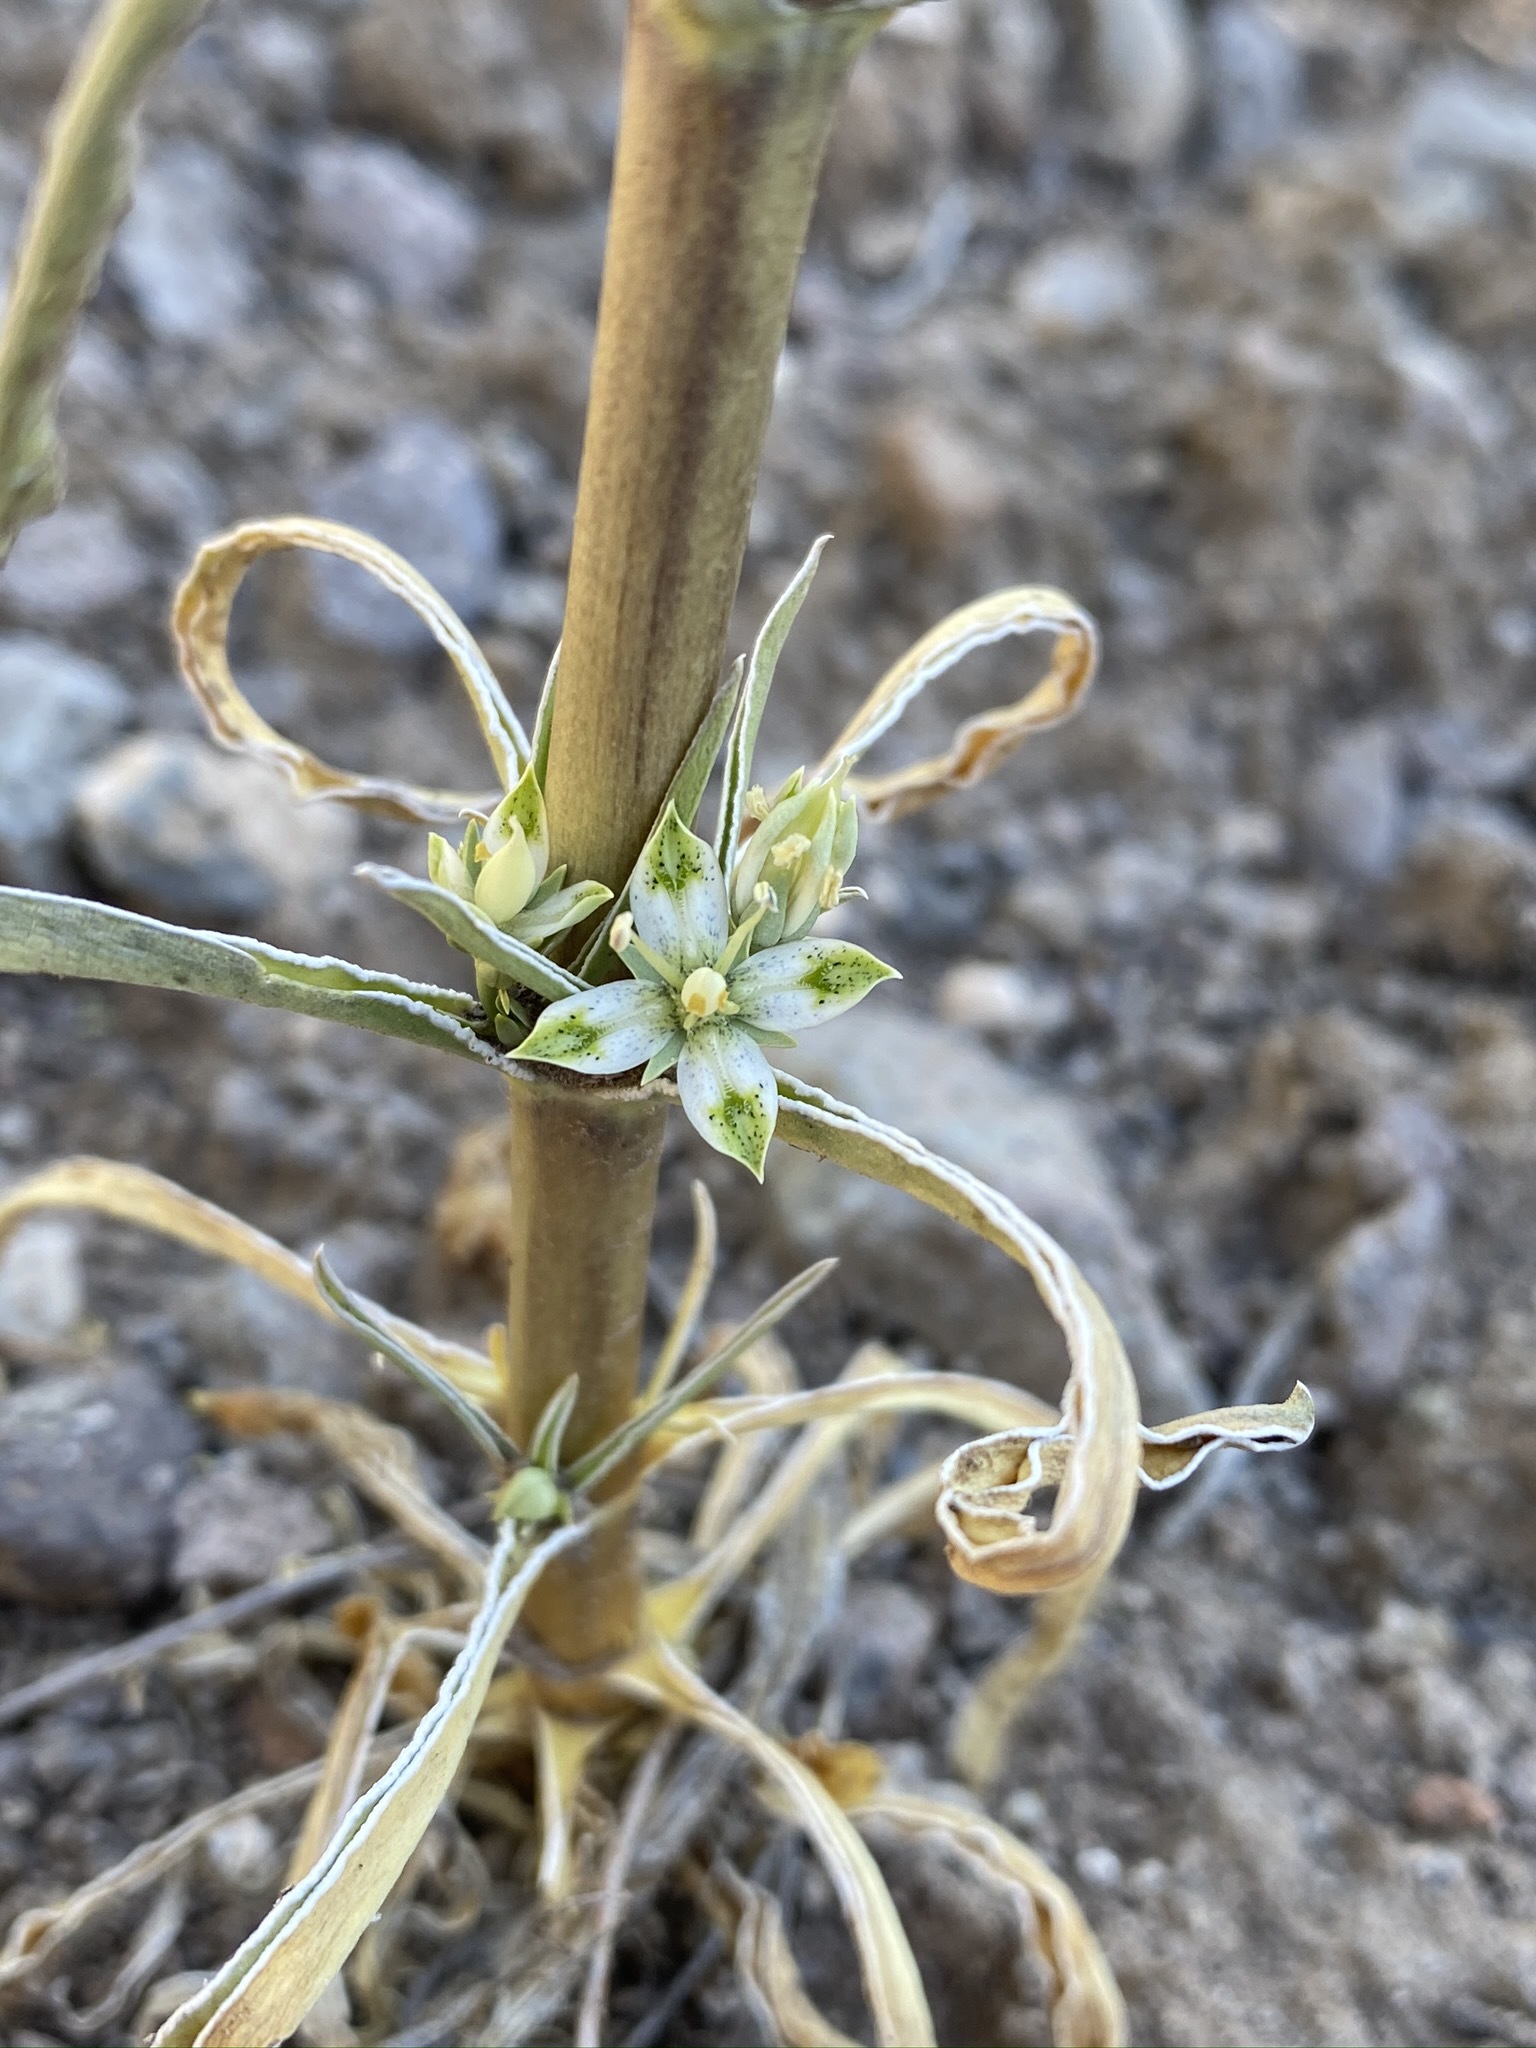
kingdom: Plantae
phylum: Tracheophyta
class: Magnoliopsida
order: Gentianales
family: Gentianaceae
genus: Frasera
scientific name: Frasera albomarginata
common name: Desert frasera
